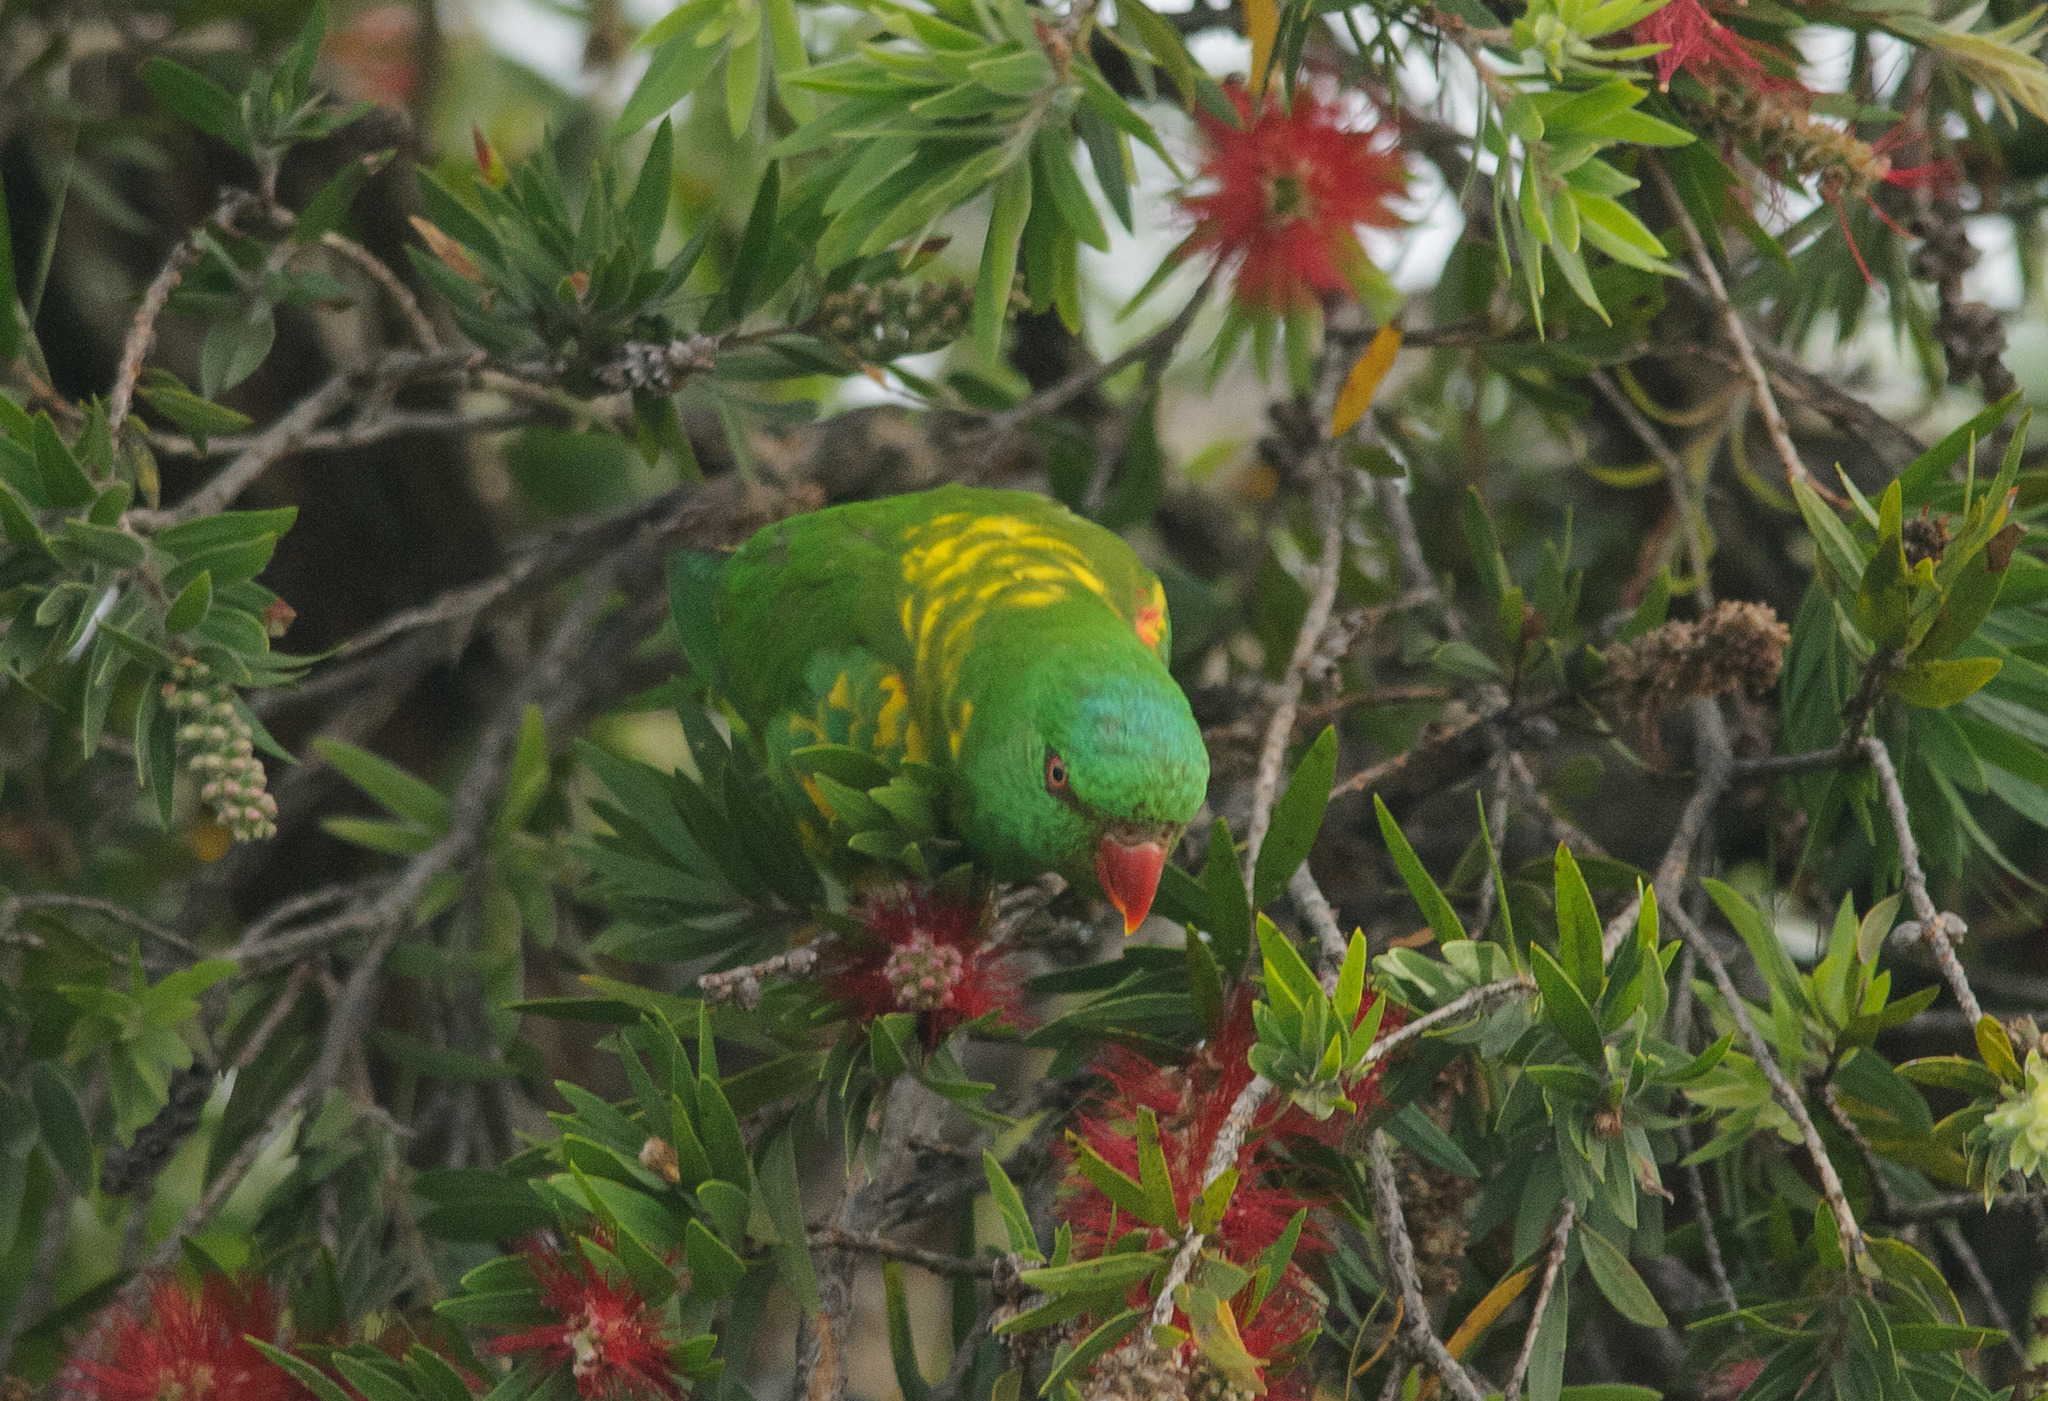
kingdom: Animalia
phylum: Chordata
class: Aves
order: Psittaciformes
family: Psittacidae
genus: Trichoglossus
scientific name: Trichoglossus chlorolepidotus
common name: Scaly-breasted lorikeet
